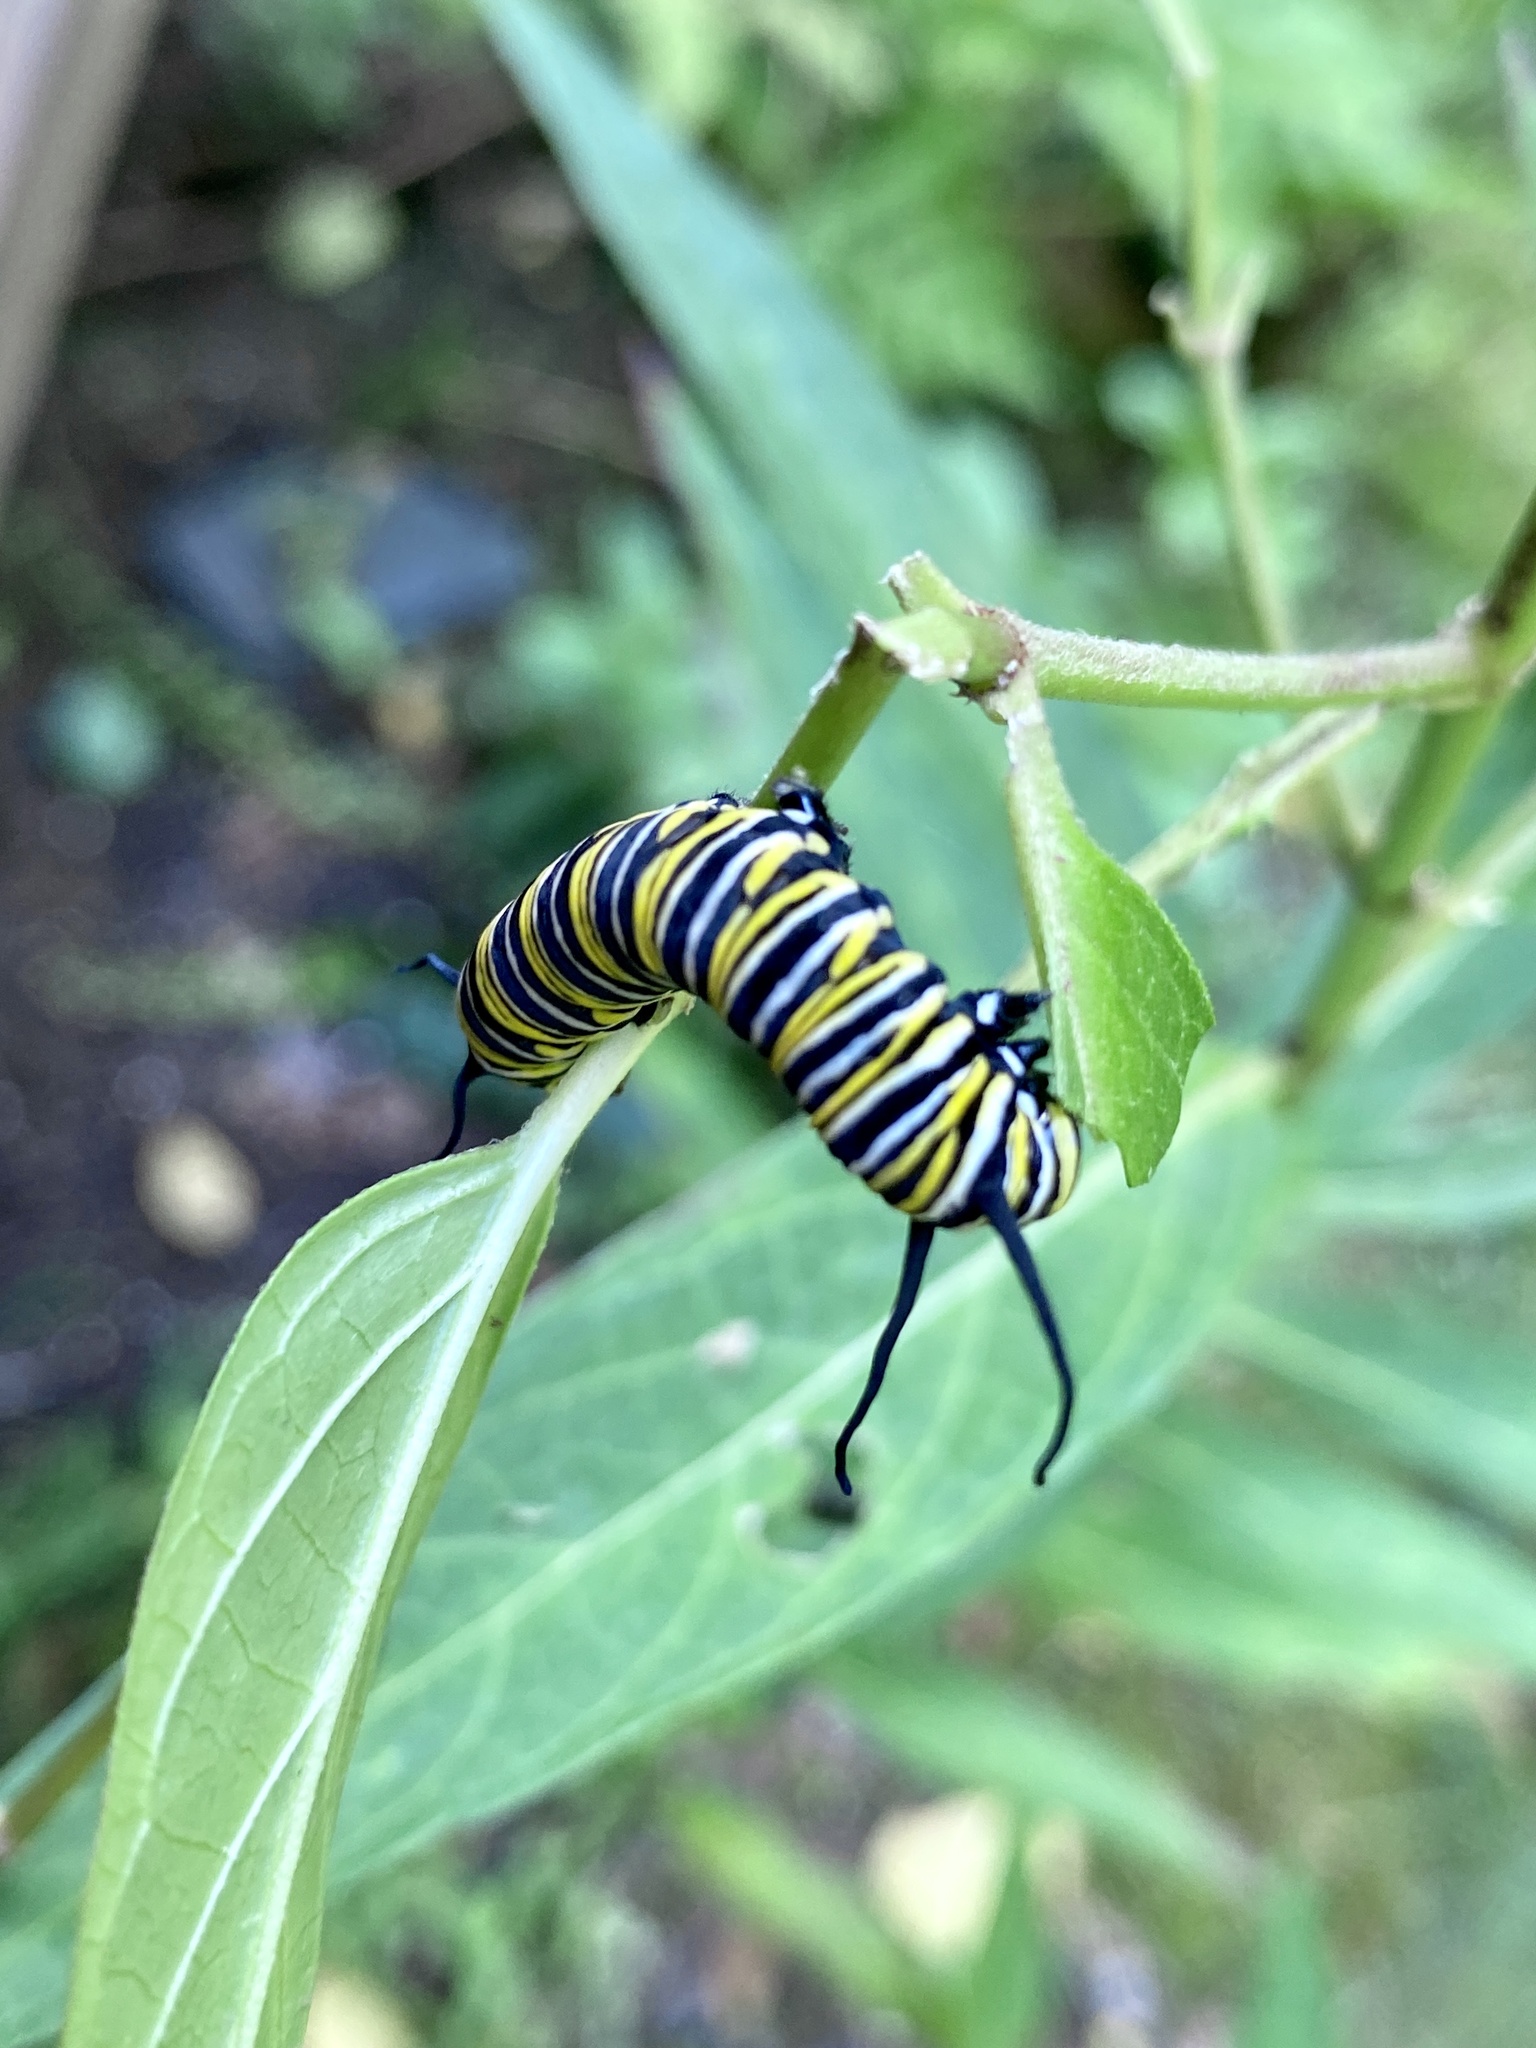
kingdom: Animalia
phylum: Arthropoda
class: Insecta
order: Lepidoptera
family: Nymphalidae
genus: Danaus
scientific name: Danaus plexippus
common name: Monarch
